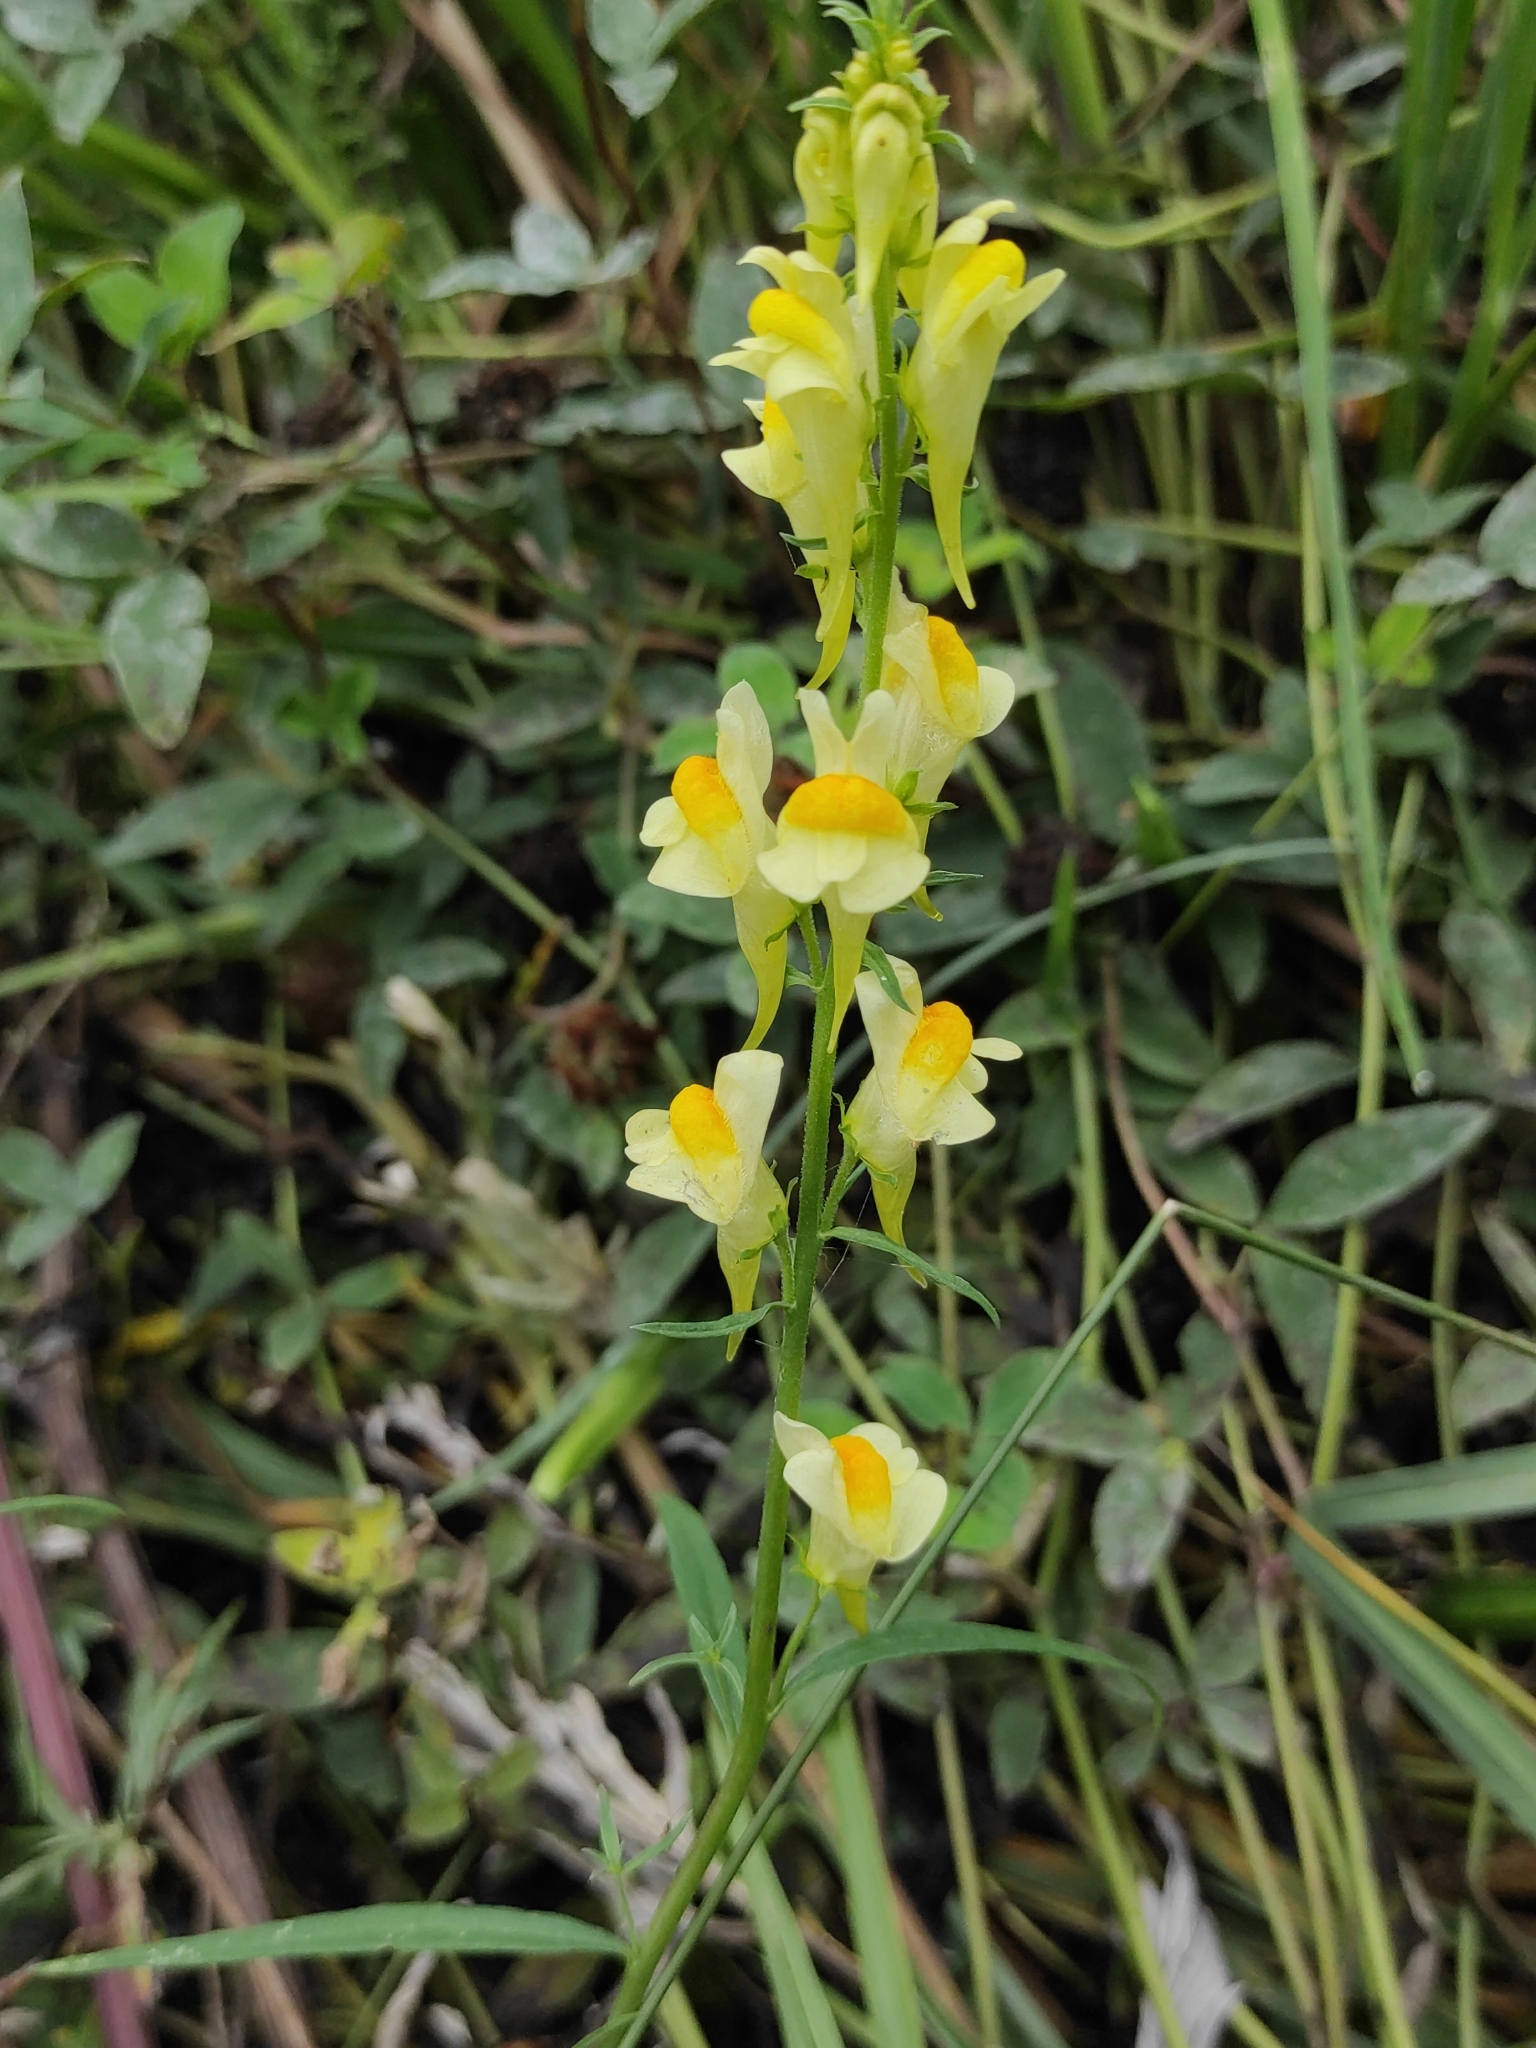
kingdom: Plantae
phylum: Tracheophyta
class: Magnoliopsida
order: Lamiales
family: Plantaginaceae
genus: Linaria
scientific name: Linaria vulgaris
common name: Butter and eggs
